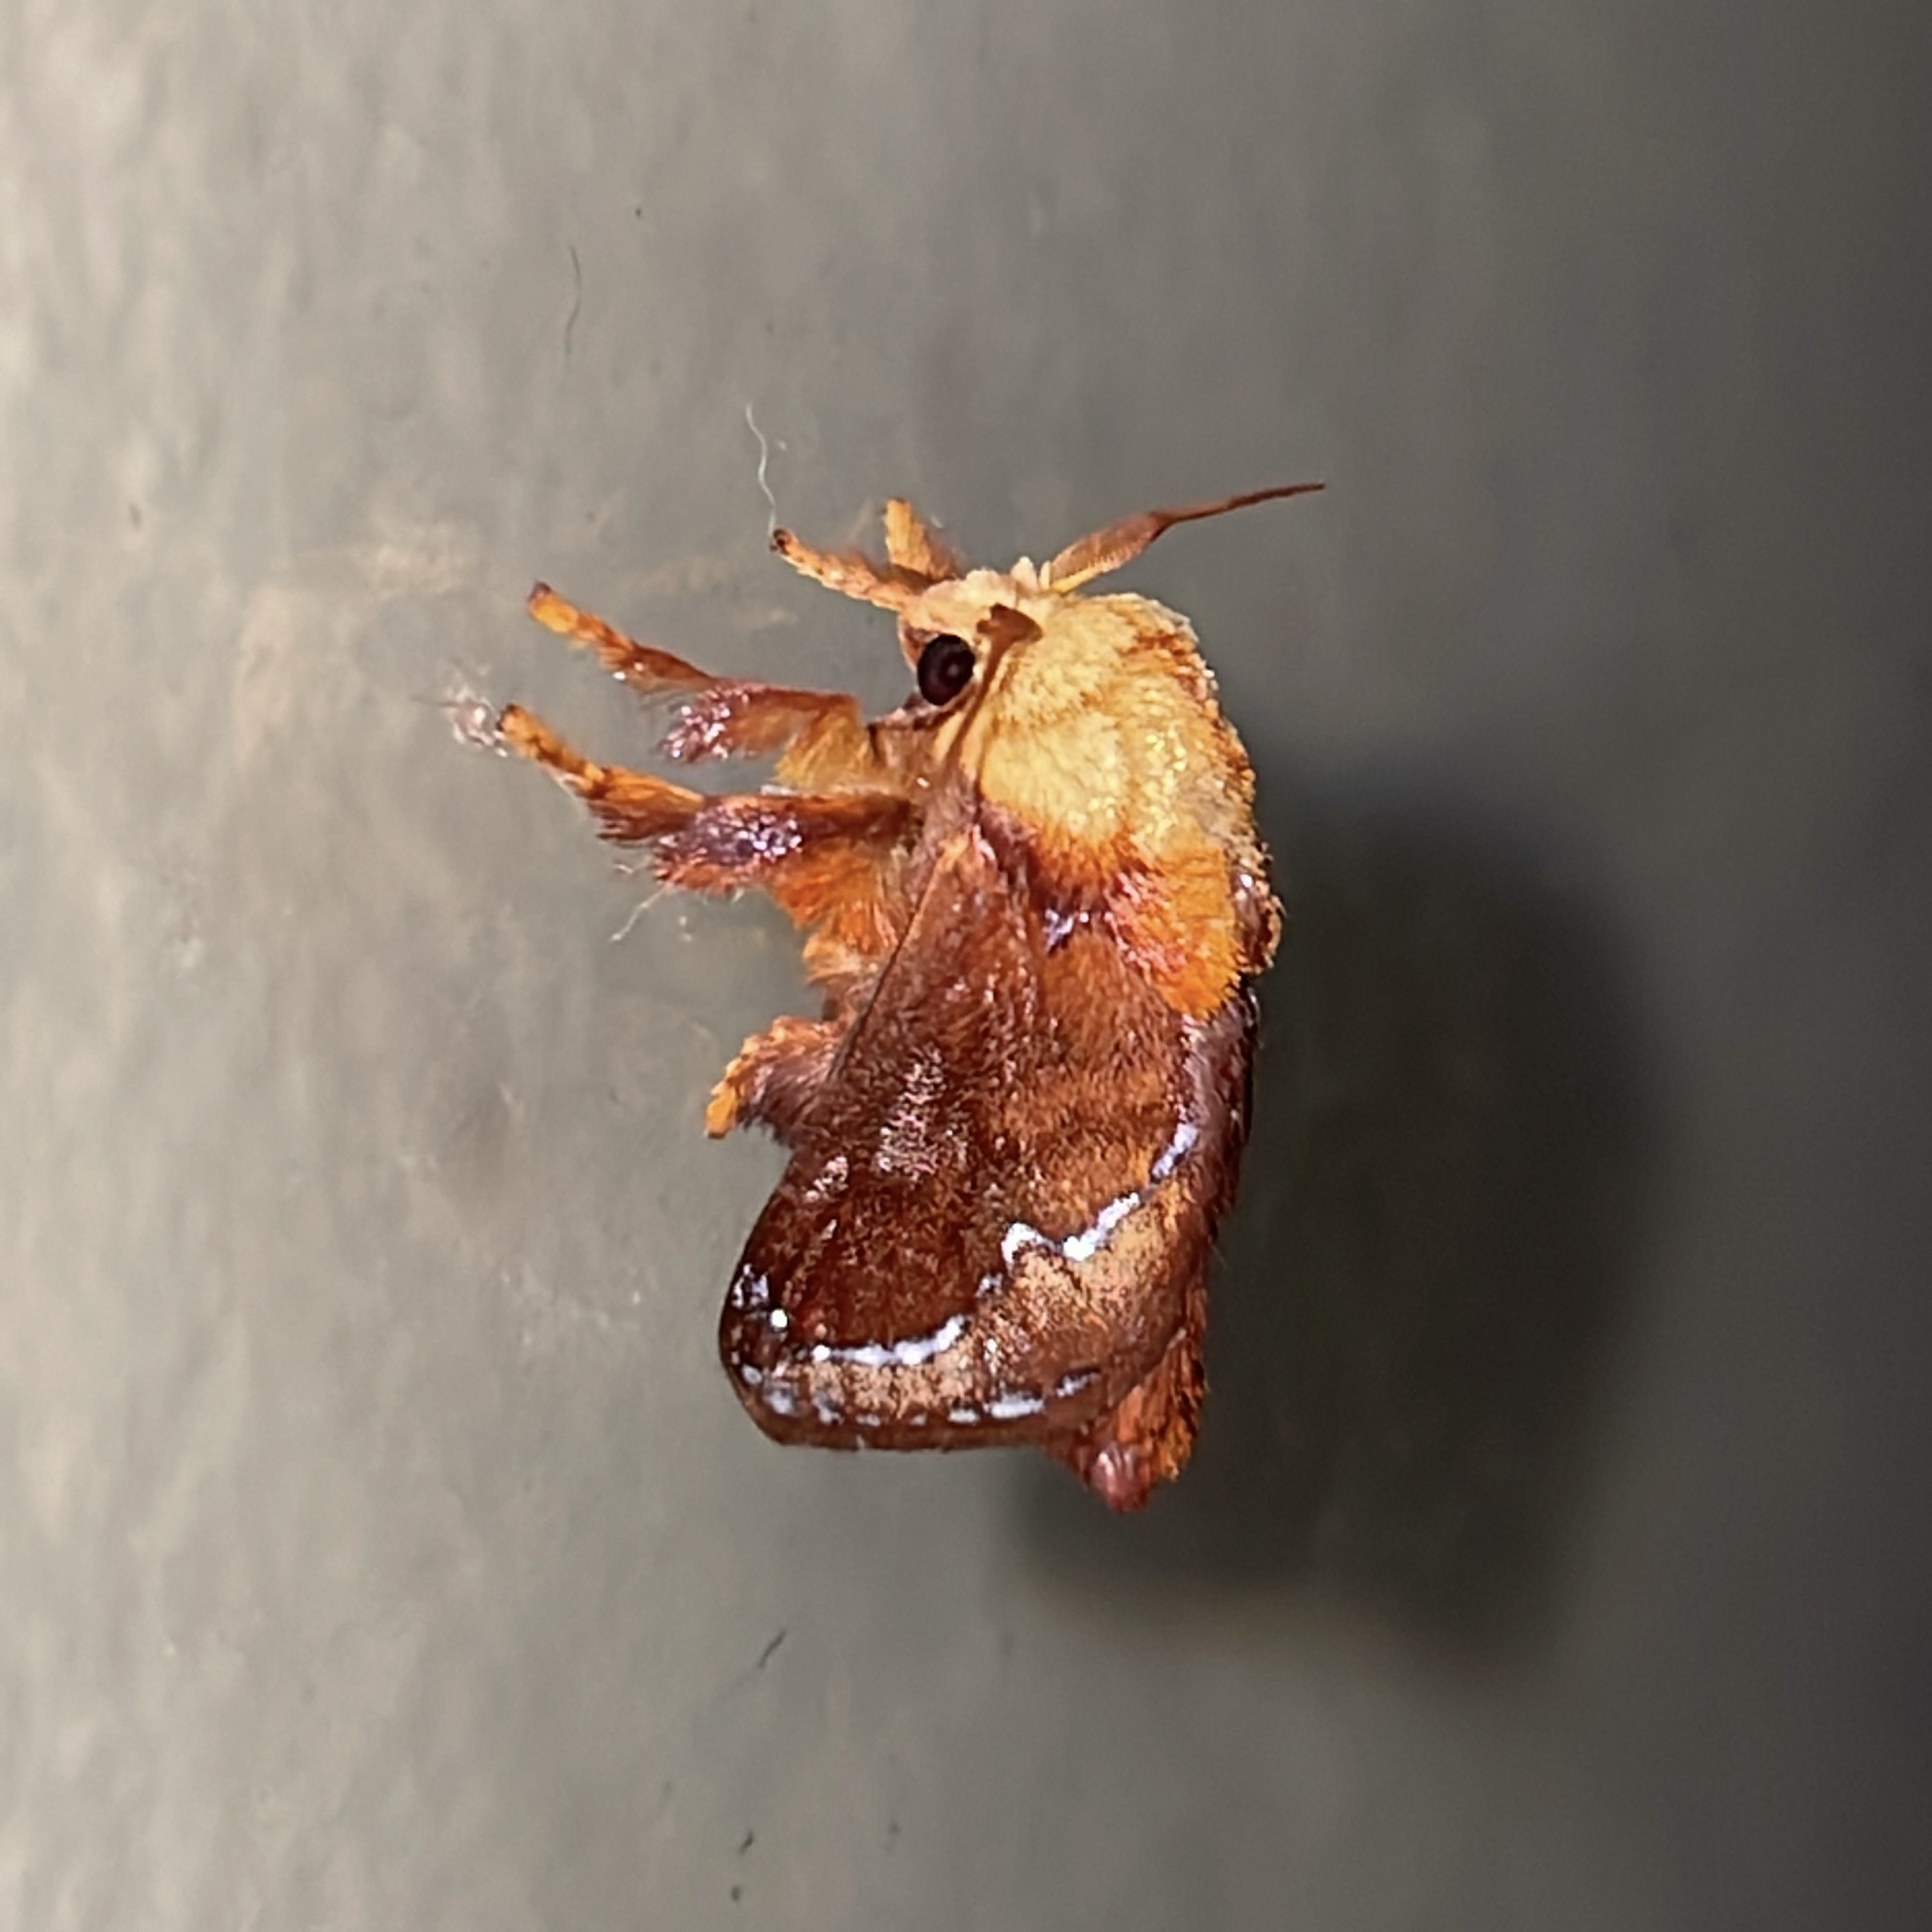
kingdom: Animalia
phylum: Arthropoda
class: Insecta
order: Lepidoptera
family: Limacodidae
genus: Miresa
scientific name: Miresa clarissa
